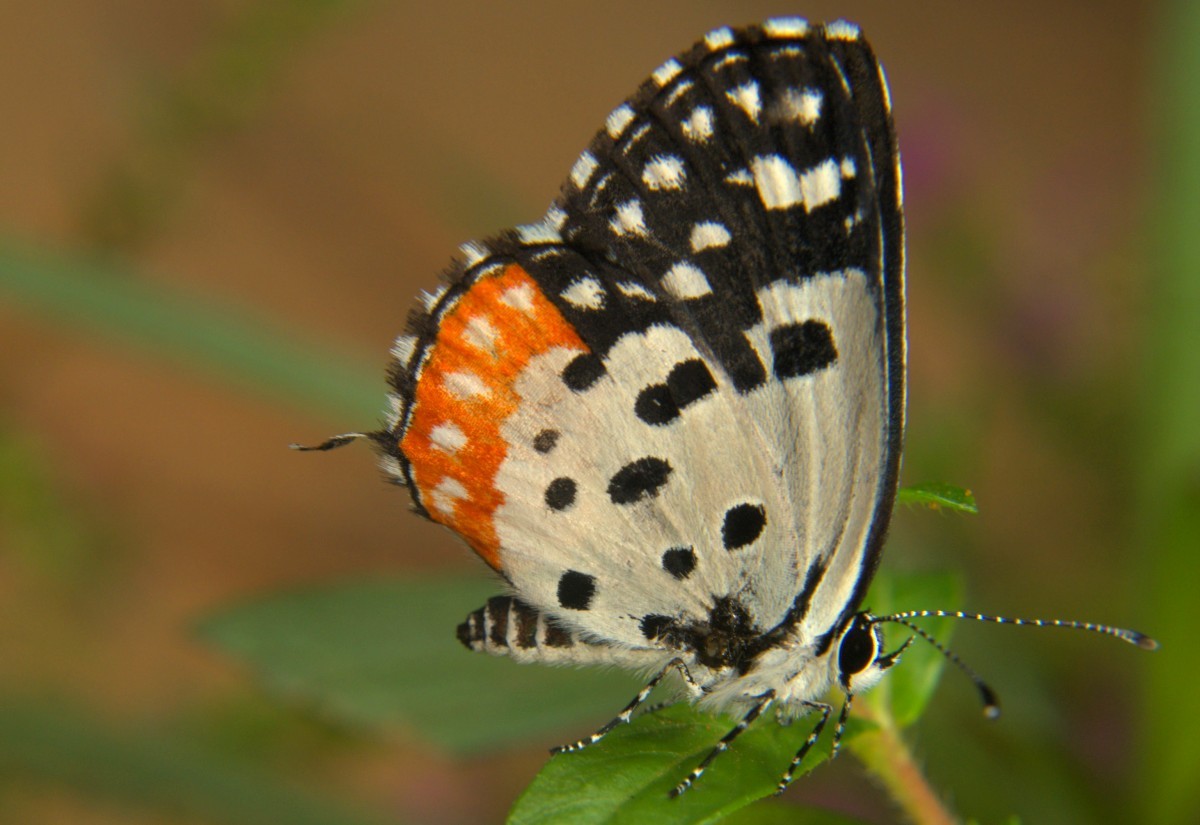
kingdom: Animalia
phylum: Arthropoda
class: Insecta
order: Lepidoptera
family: Lycaenidae
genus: Talicada
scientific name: Talicada nyseus
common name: Red pierrot
